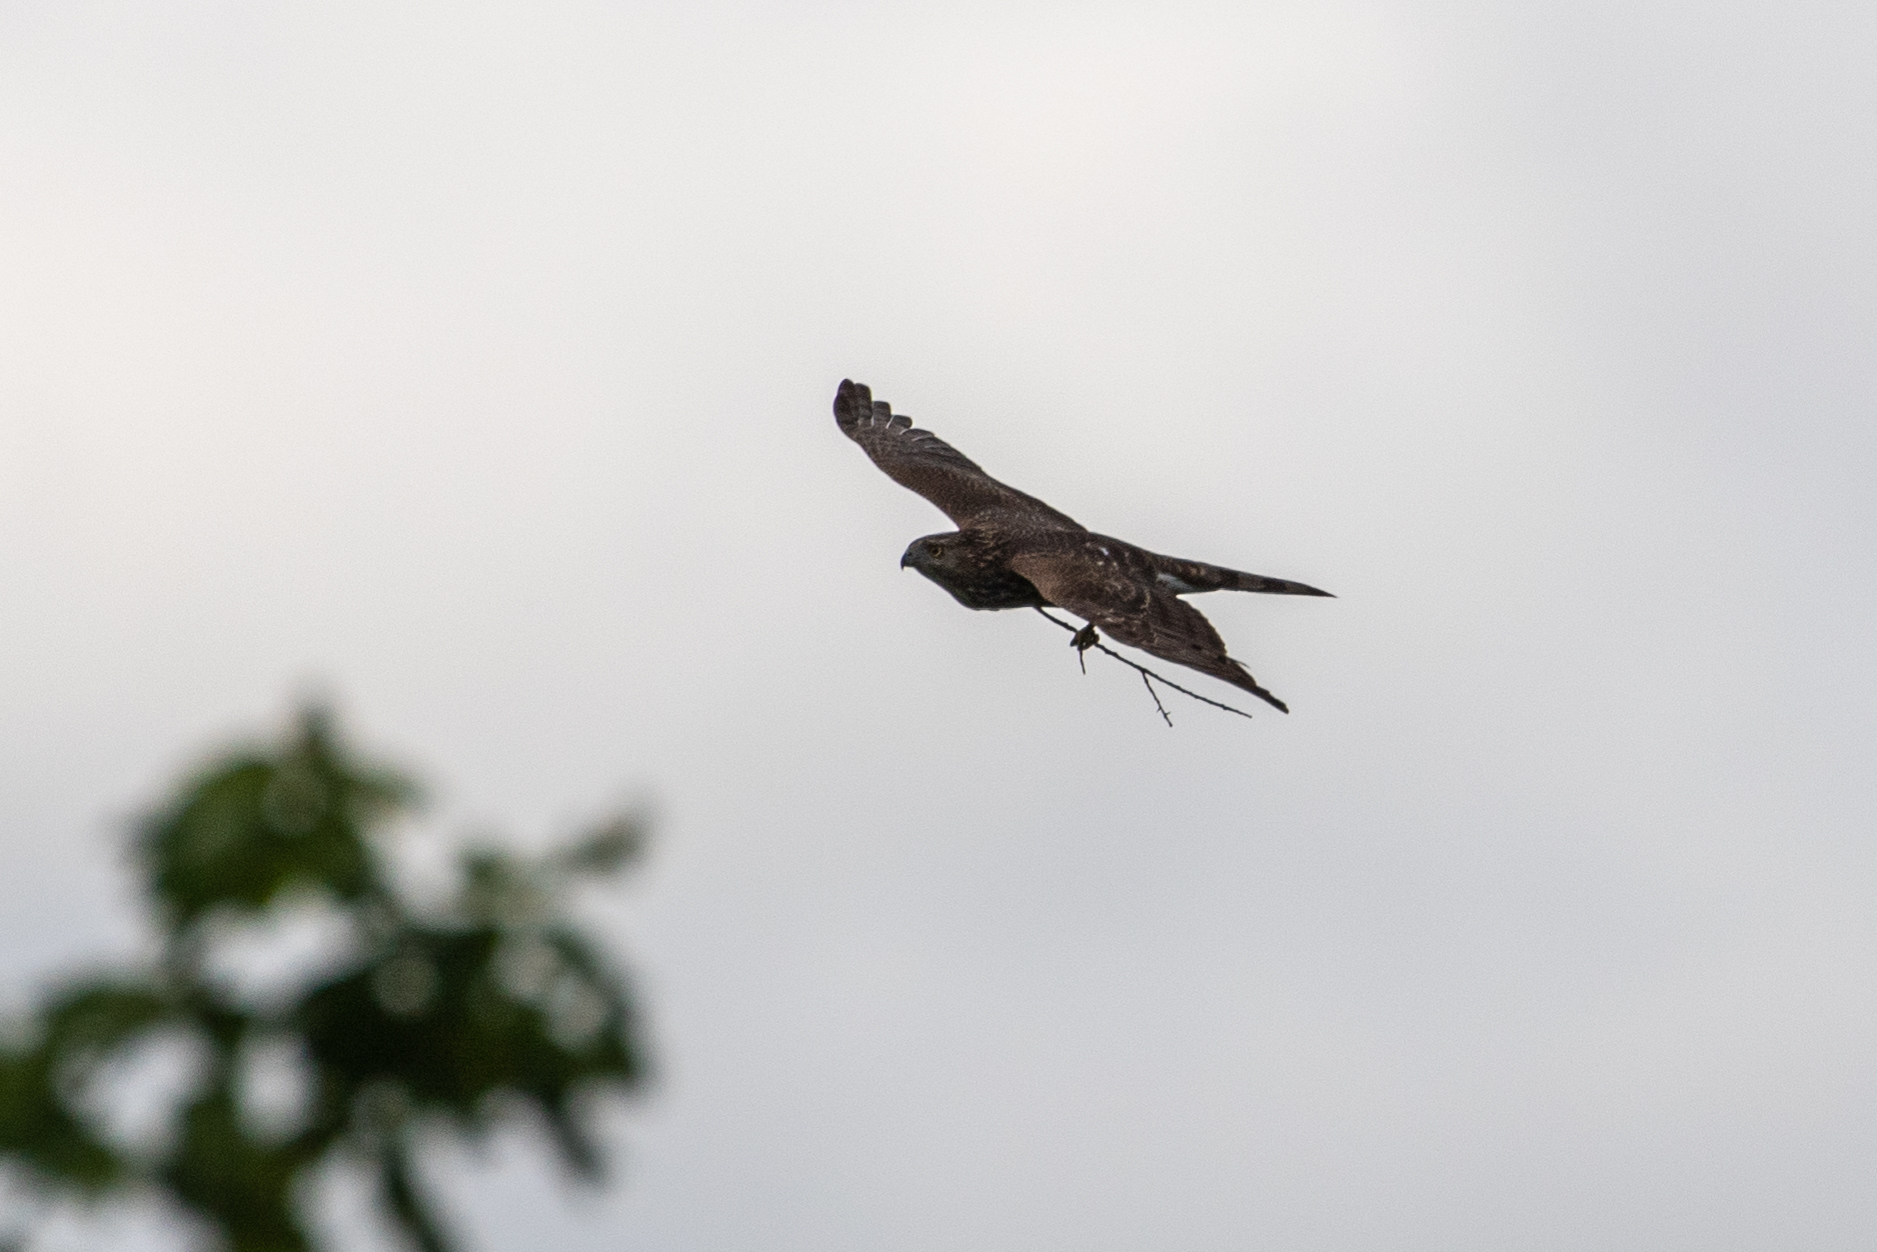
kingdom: Animalia
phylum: Chordata
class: Aves
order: Accipitriformes
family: Accipitridae
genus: Accipiter
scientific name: Accipiter cooperii
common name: Cooper's hawk
